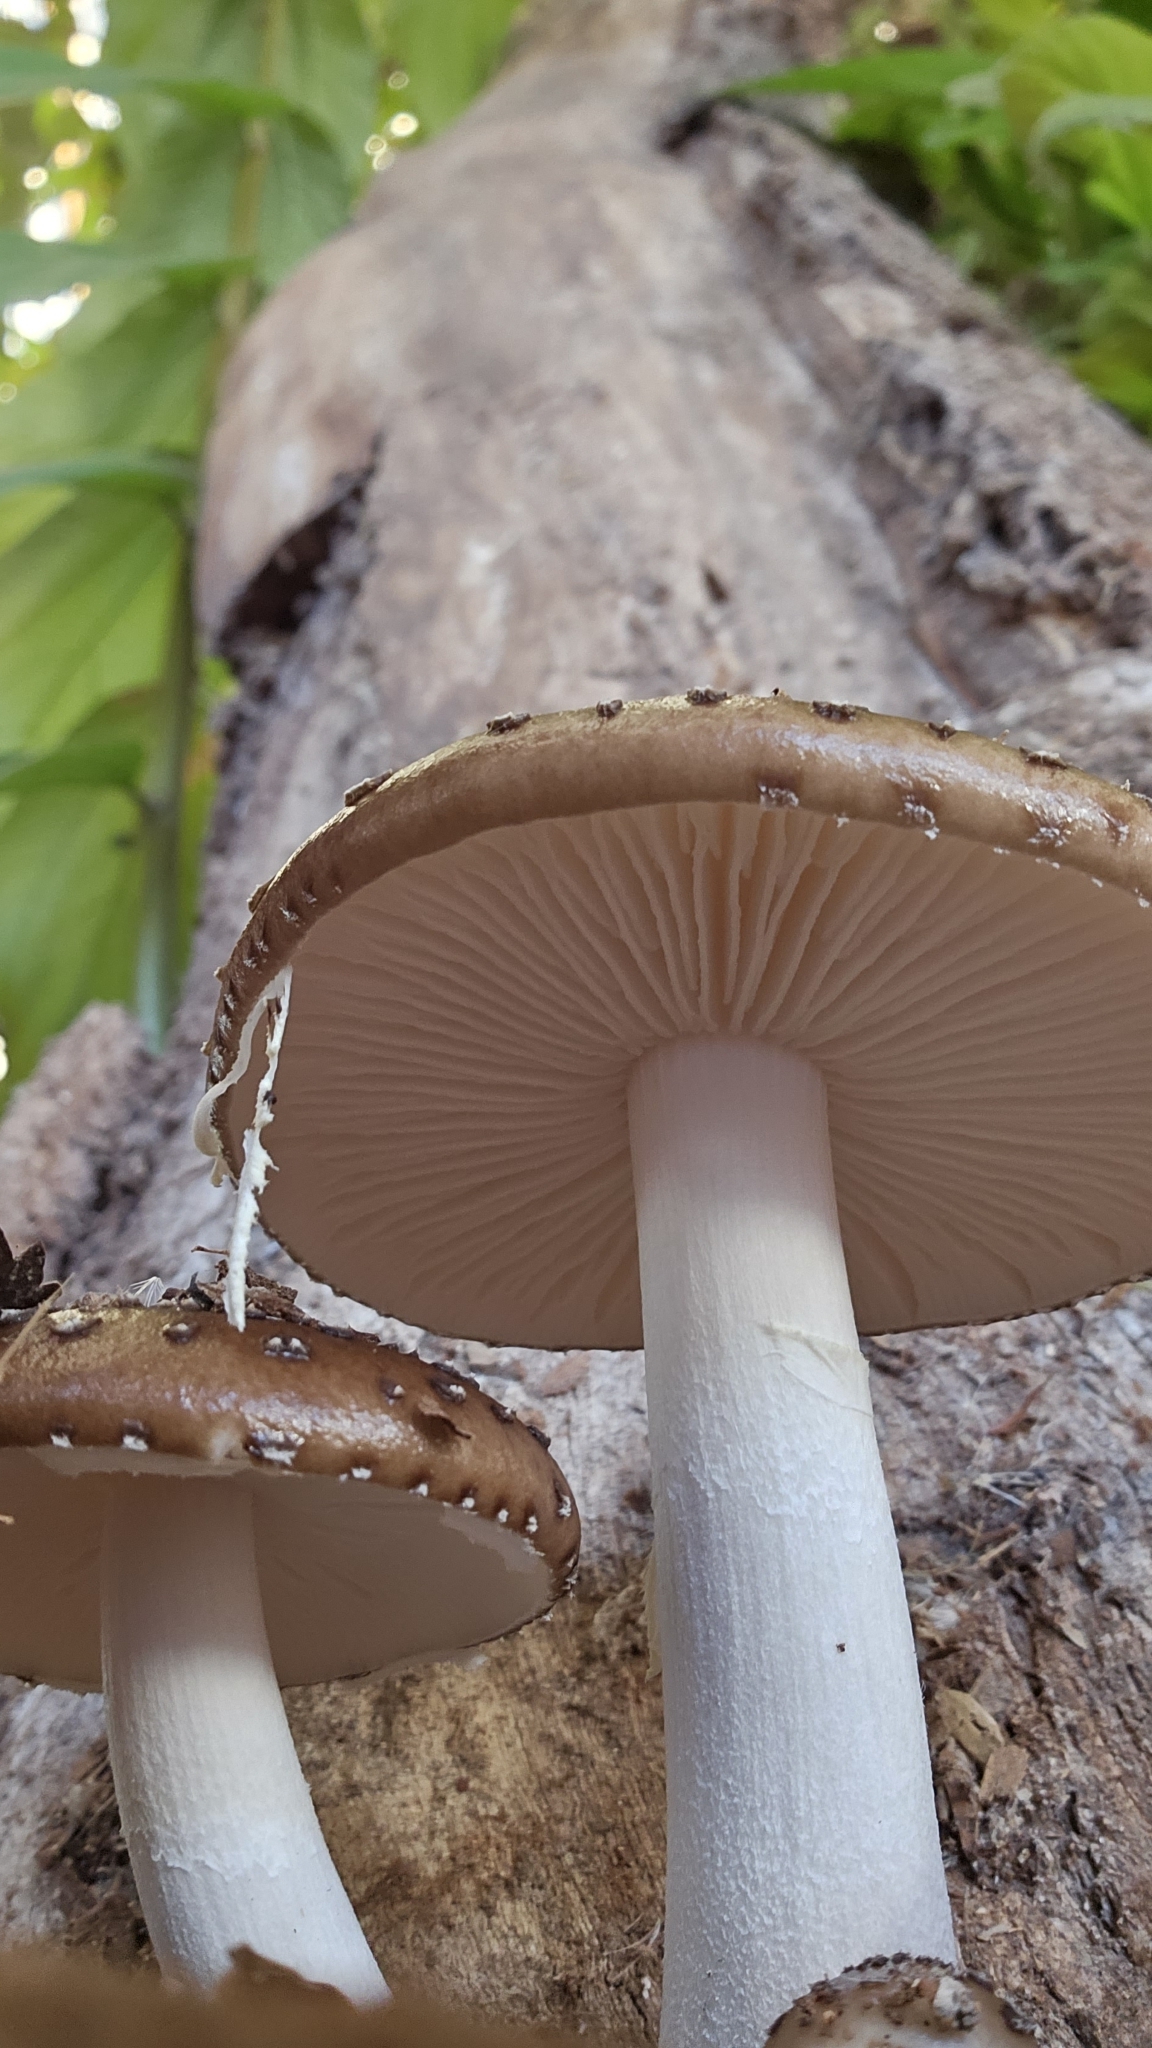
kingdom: Fungi
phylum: Basidiomycota
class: Agaricomycetes
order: Agaricales
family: Physalacriaceae
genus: Oudemansiella
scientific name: Oudemansiella cubensis
